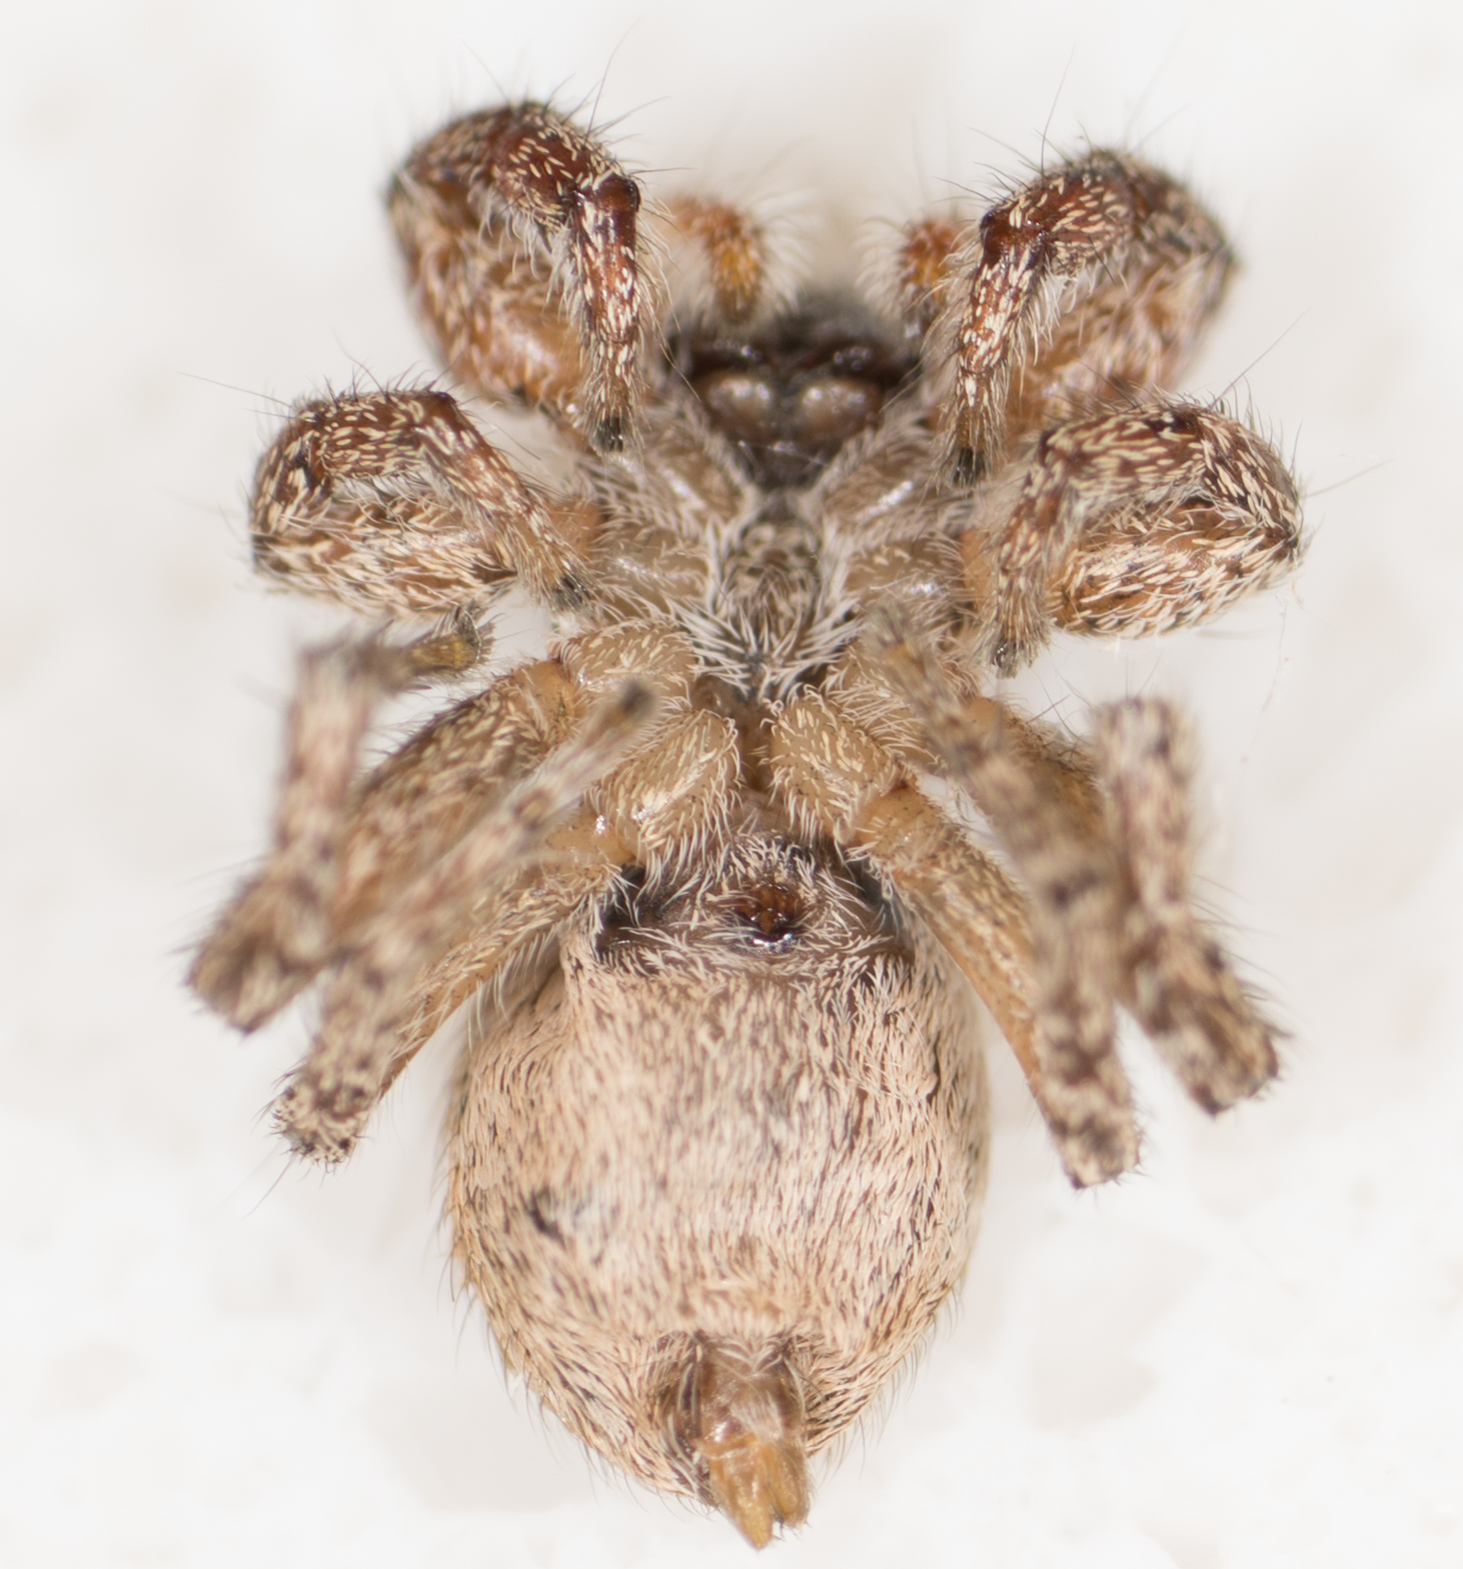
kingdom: Animalia
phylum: Arthropoda
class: Arachnida
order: Araneae
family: Salticidae
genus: Habronattus
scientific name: Habronattus pyrrithrix
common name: Jumping spider
